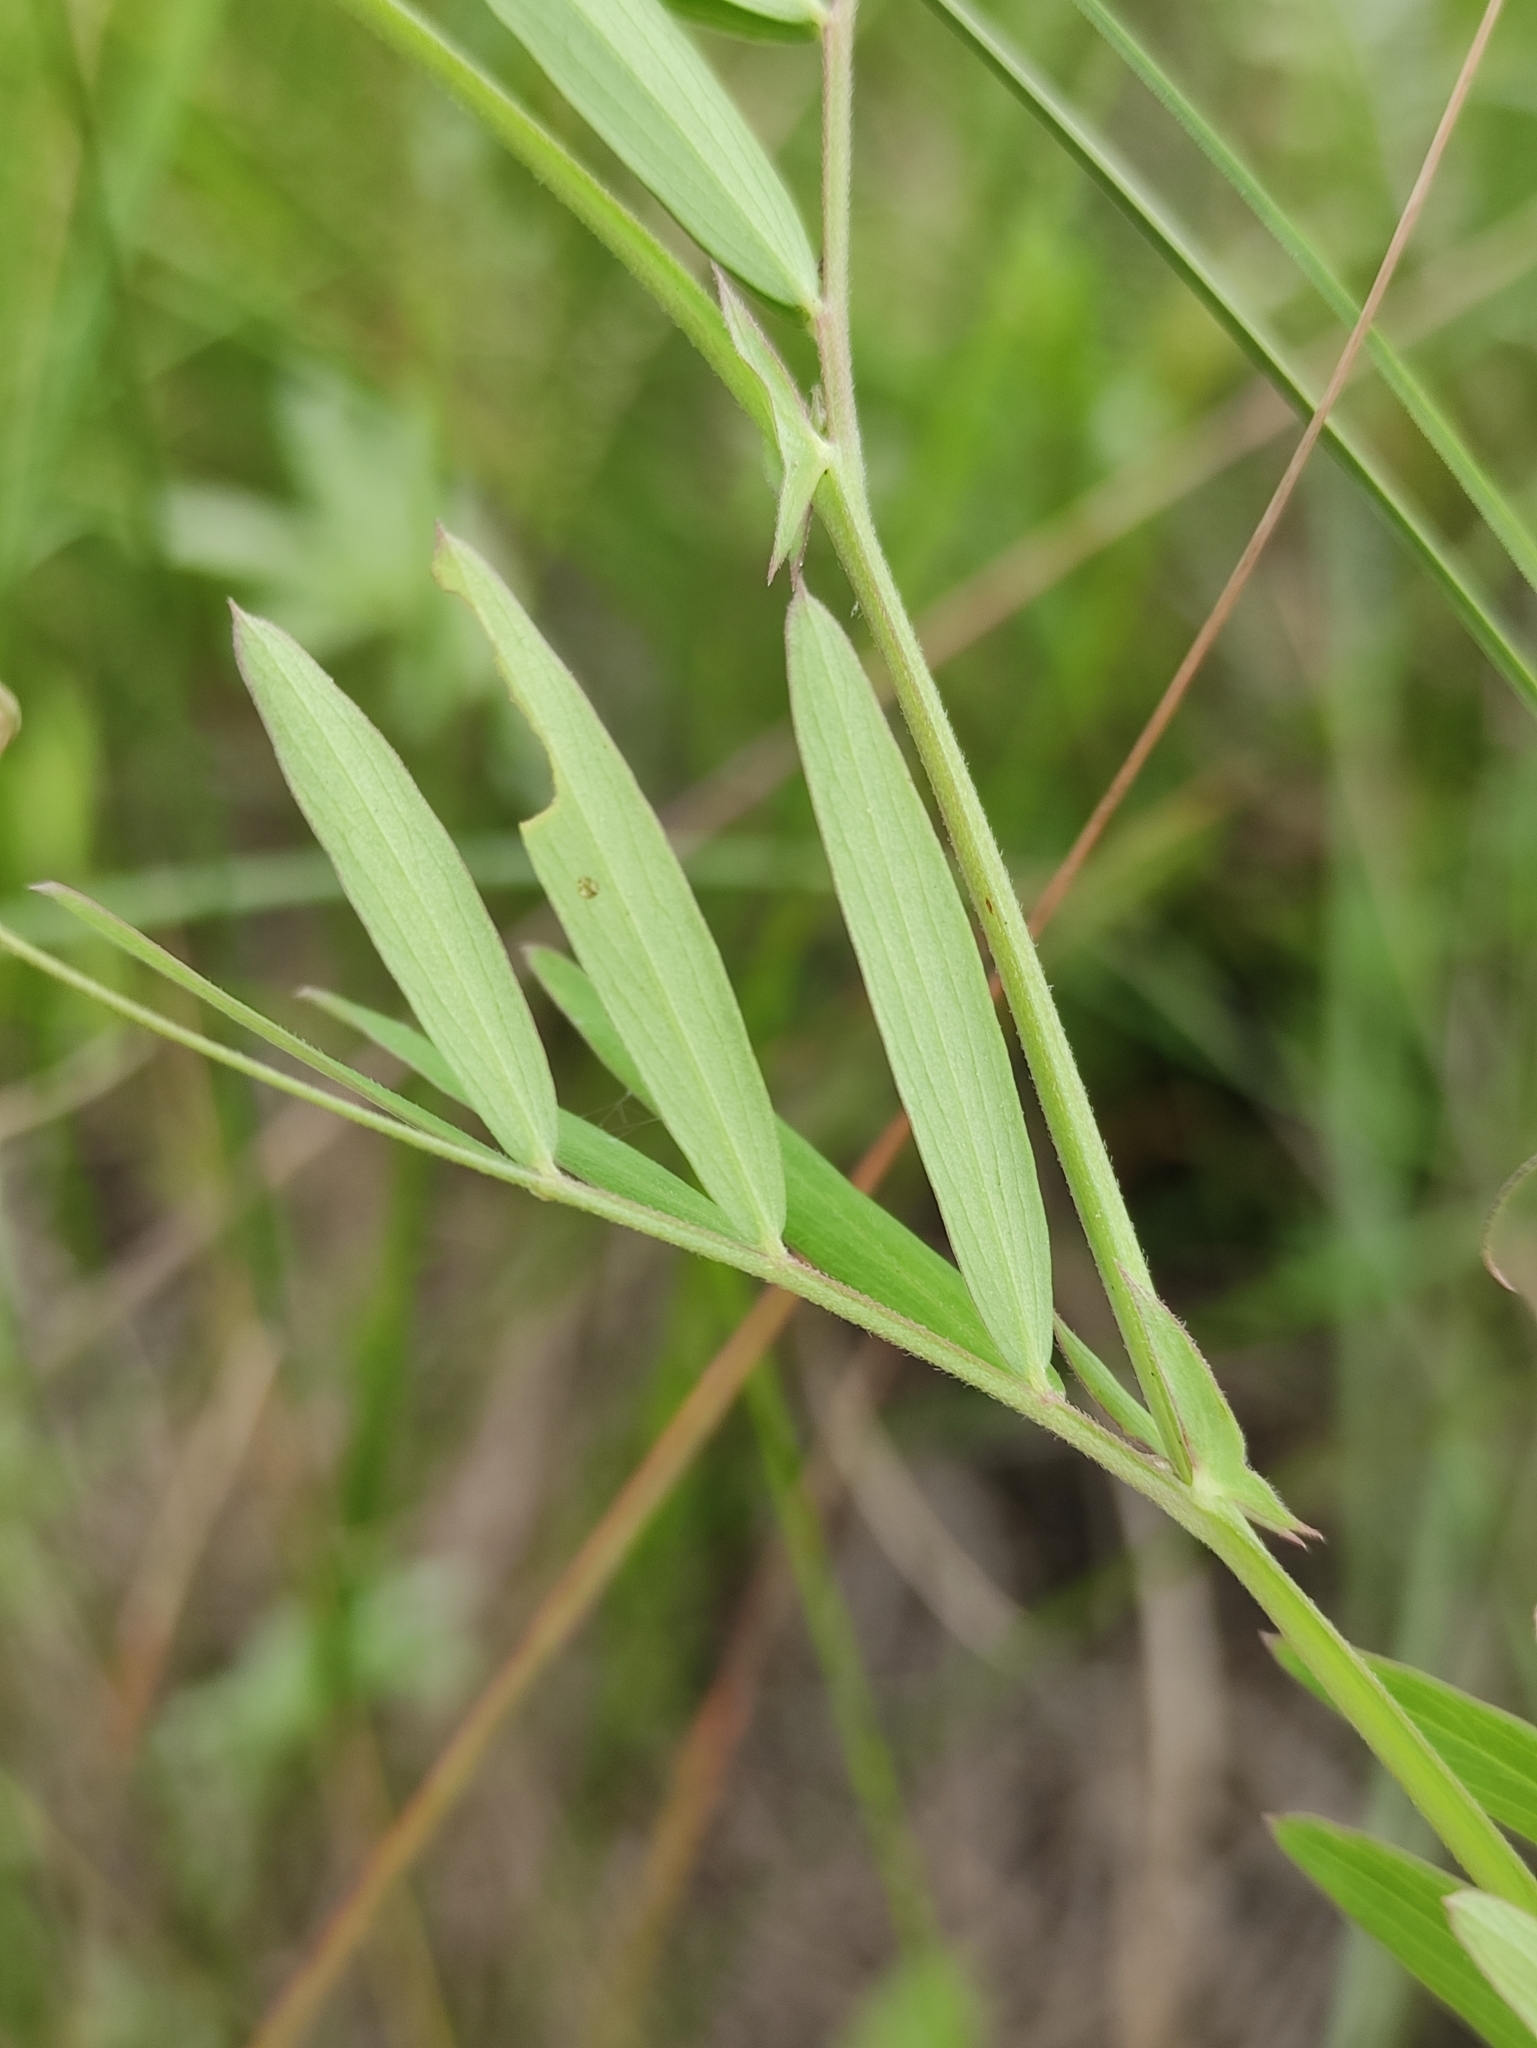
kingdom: Plantae
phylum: Tracheophyta
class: Magnoliopsida
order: Fabales
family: Fabaceae
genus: Lathyrus
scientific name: Lathyrus palustris
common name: Marsh pea
